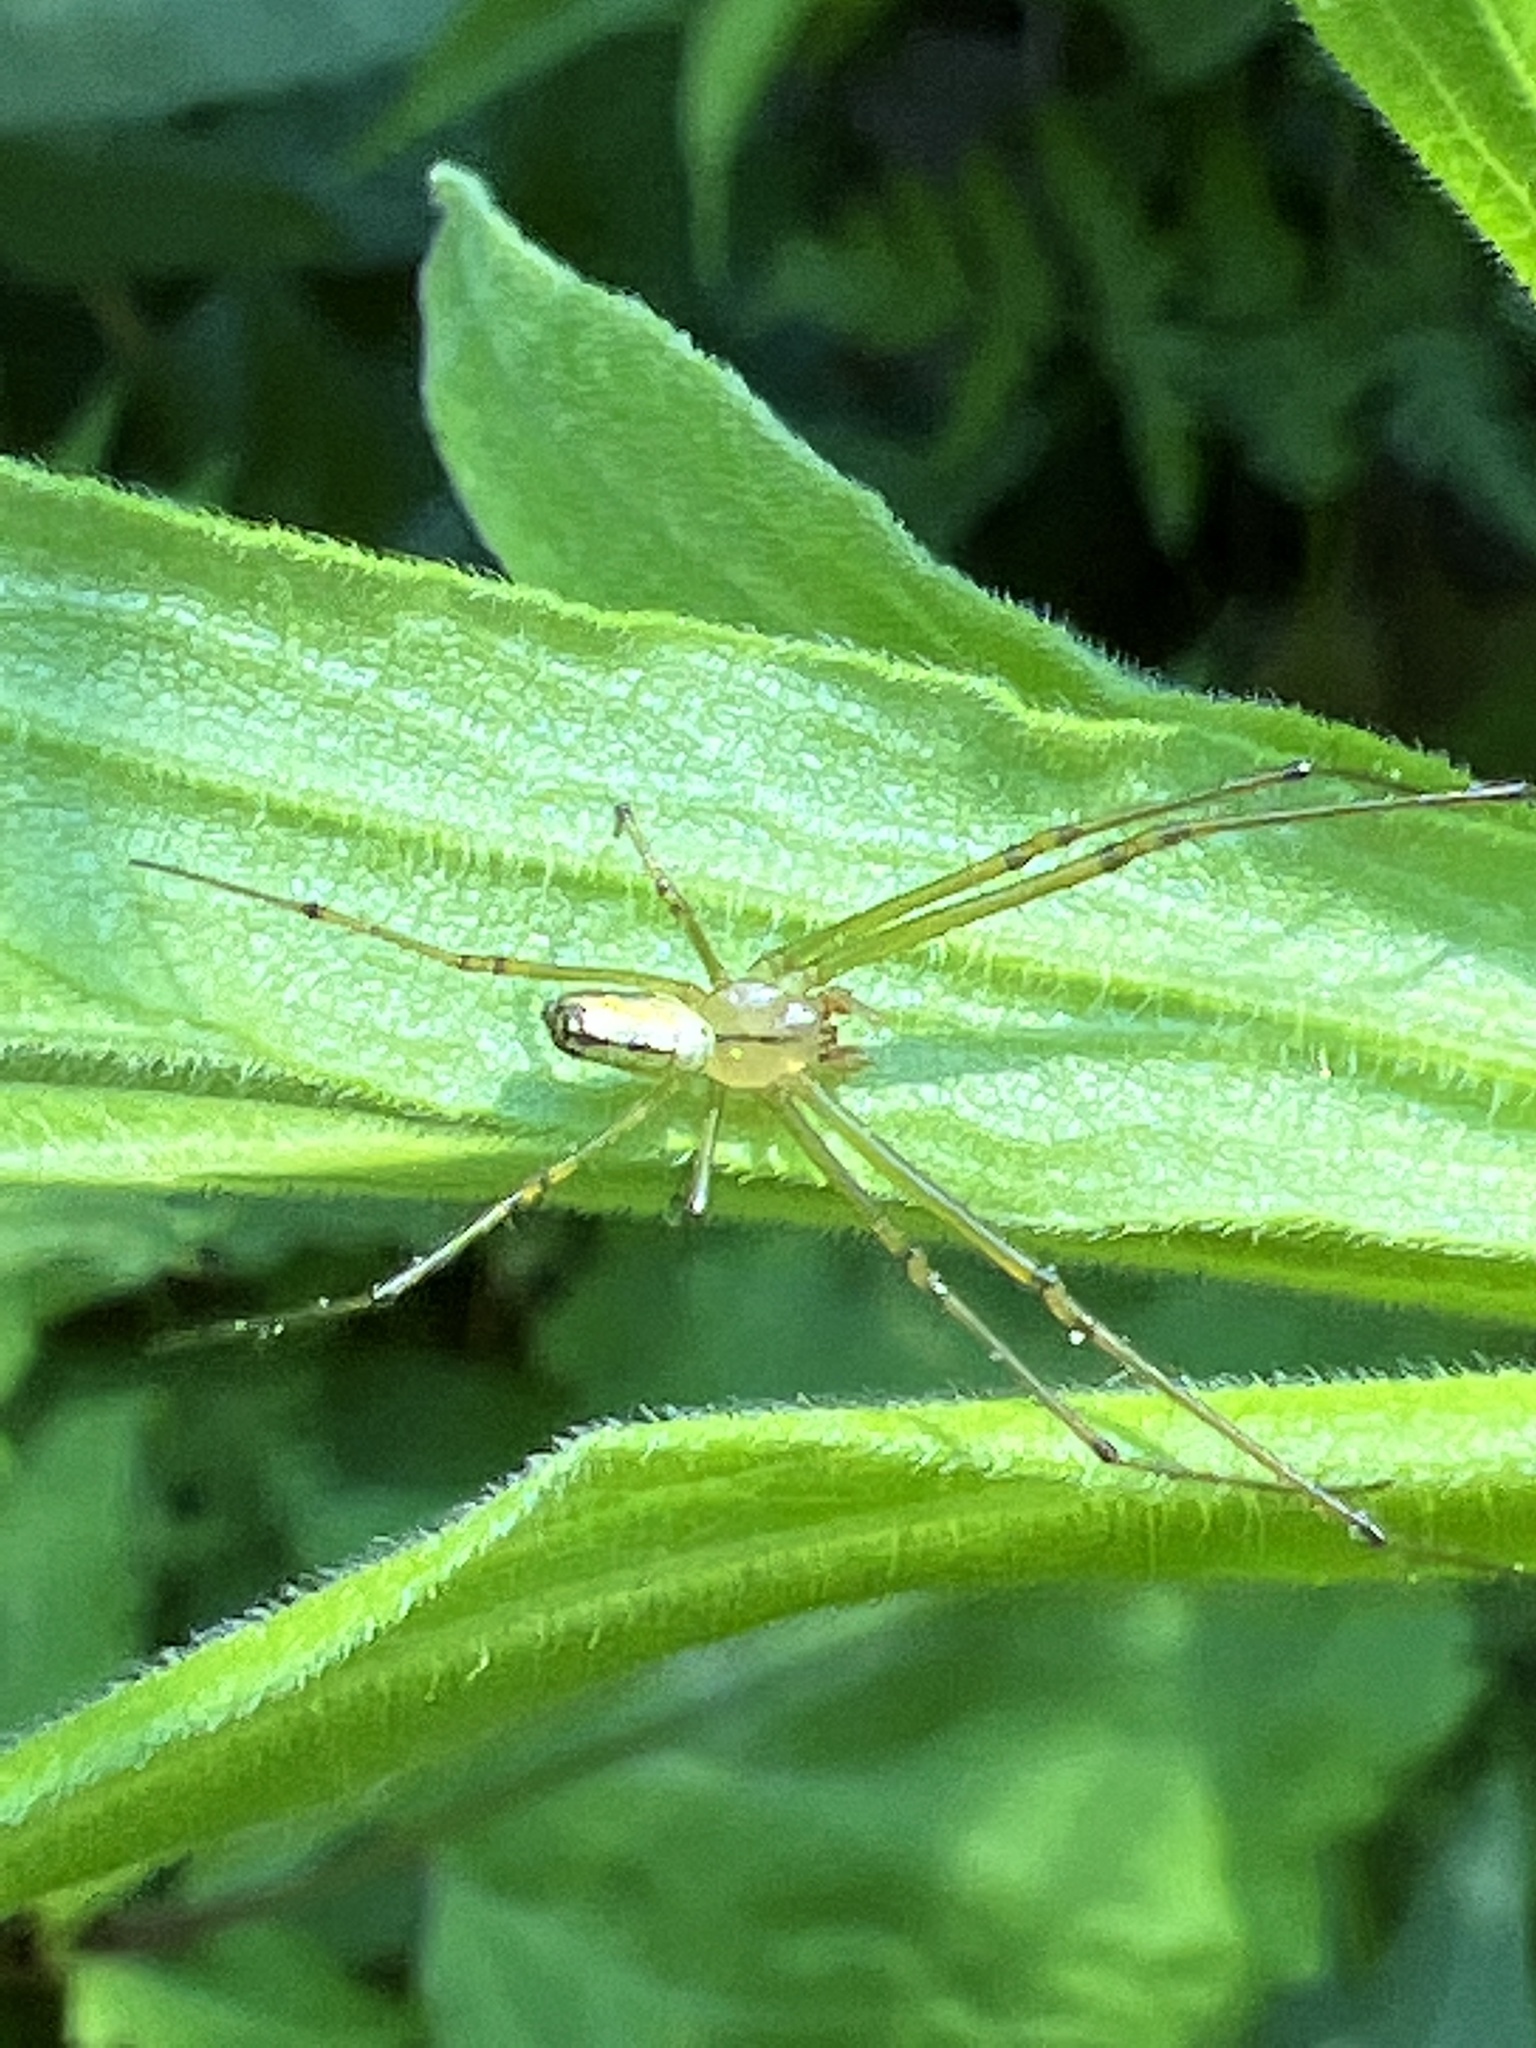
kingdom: Animalia
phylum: Arthropoda
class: Arachnida
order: Araneae
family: Tetragnathidae
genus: Leucauge
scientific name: Leucauge venusta
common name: Longjawed orb weavers
